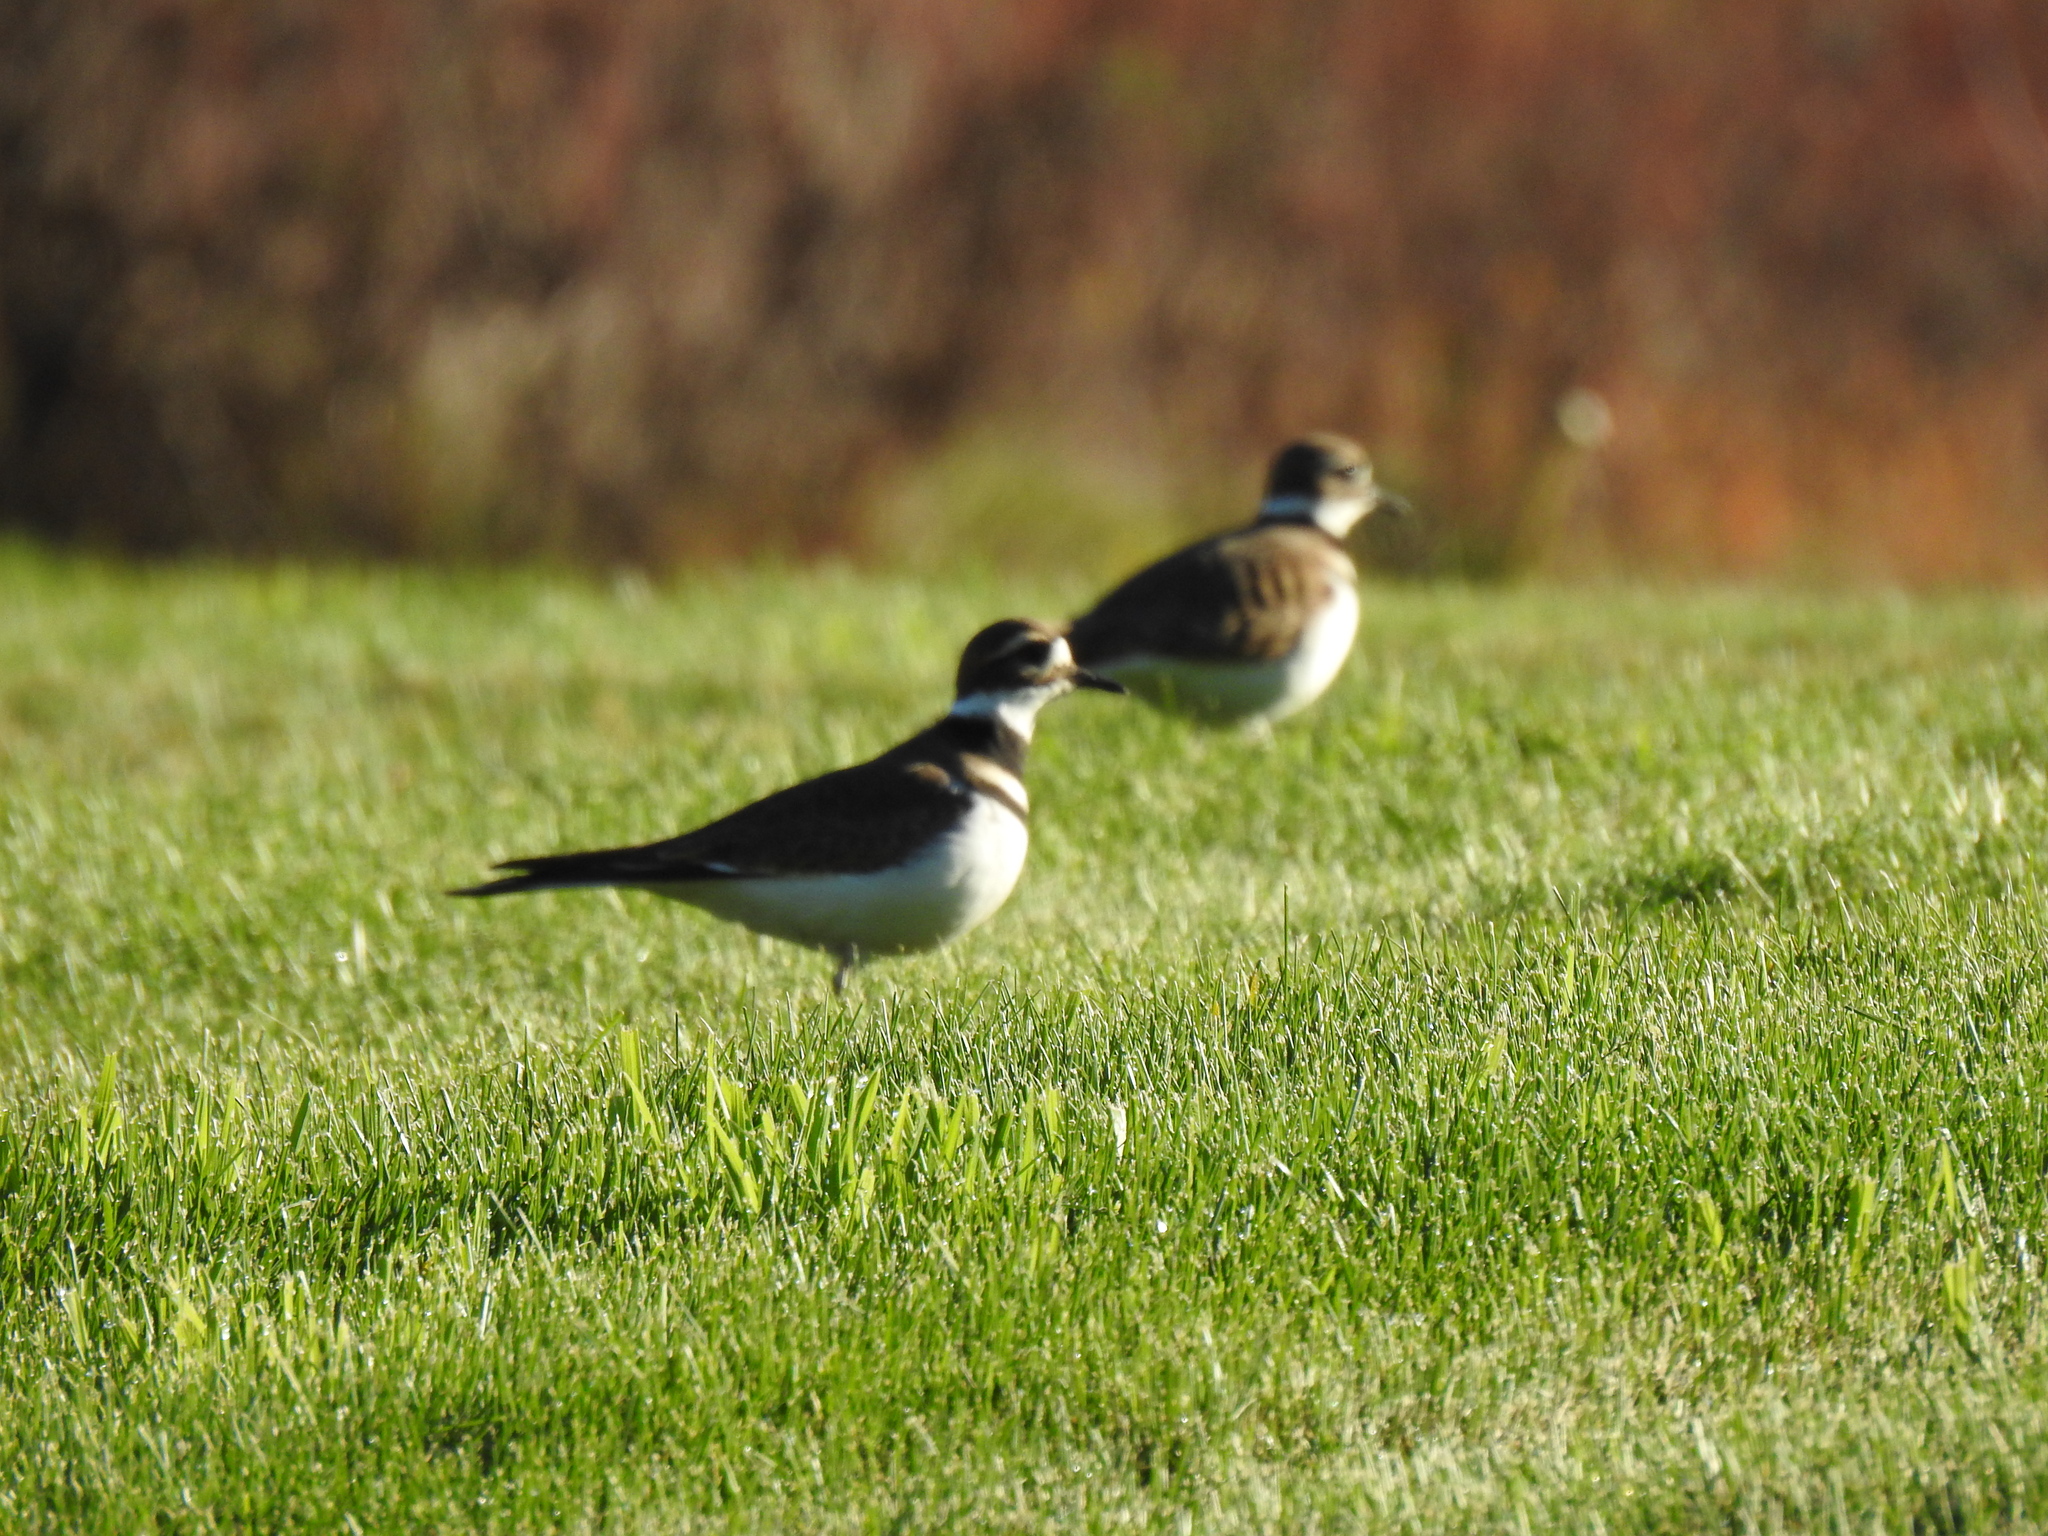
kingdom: Animalia
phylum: Chordata
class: Aves
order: Charadriiformes
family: Charadriidae
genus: Charadrius
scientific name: Charadrius vociferus
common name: Killdeer
